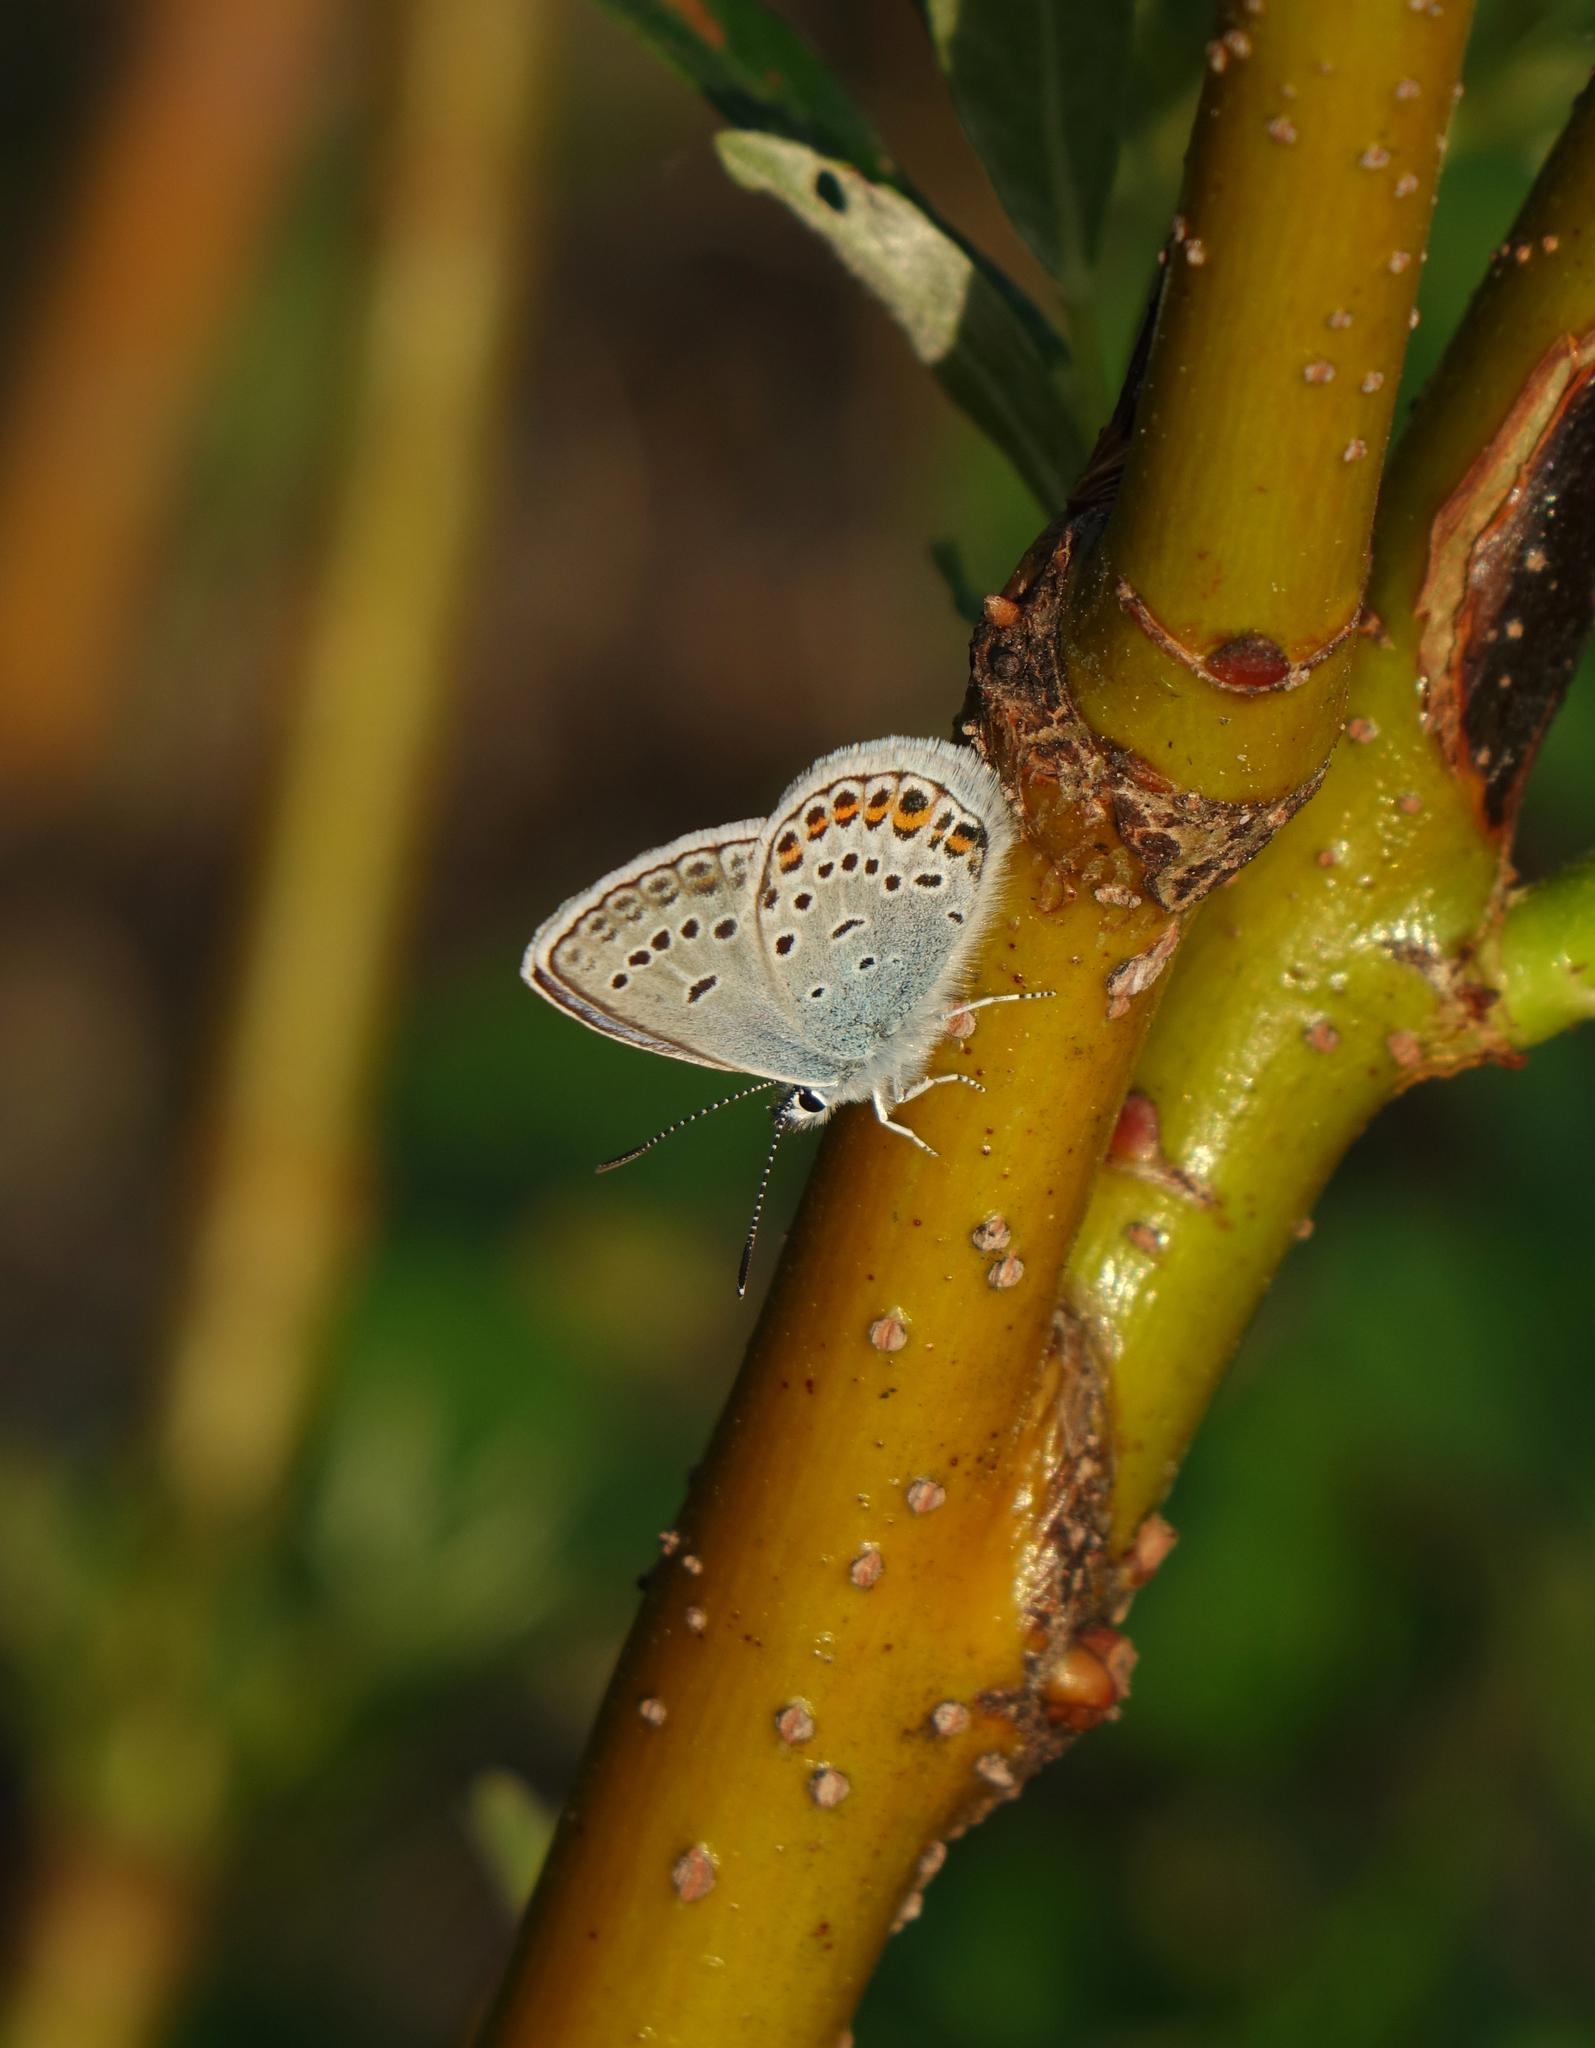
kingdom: Animalia
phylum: Arthropoda
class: Insecta
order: Lepidoptera
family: Lycaenidae
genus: Plebejus
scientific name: Plebejus argus
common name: Silver-studded blue
